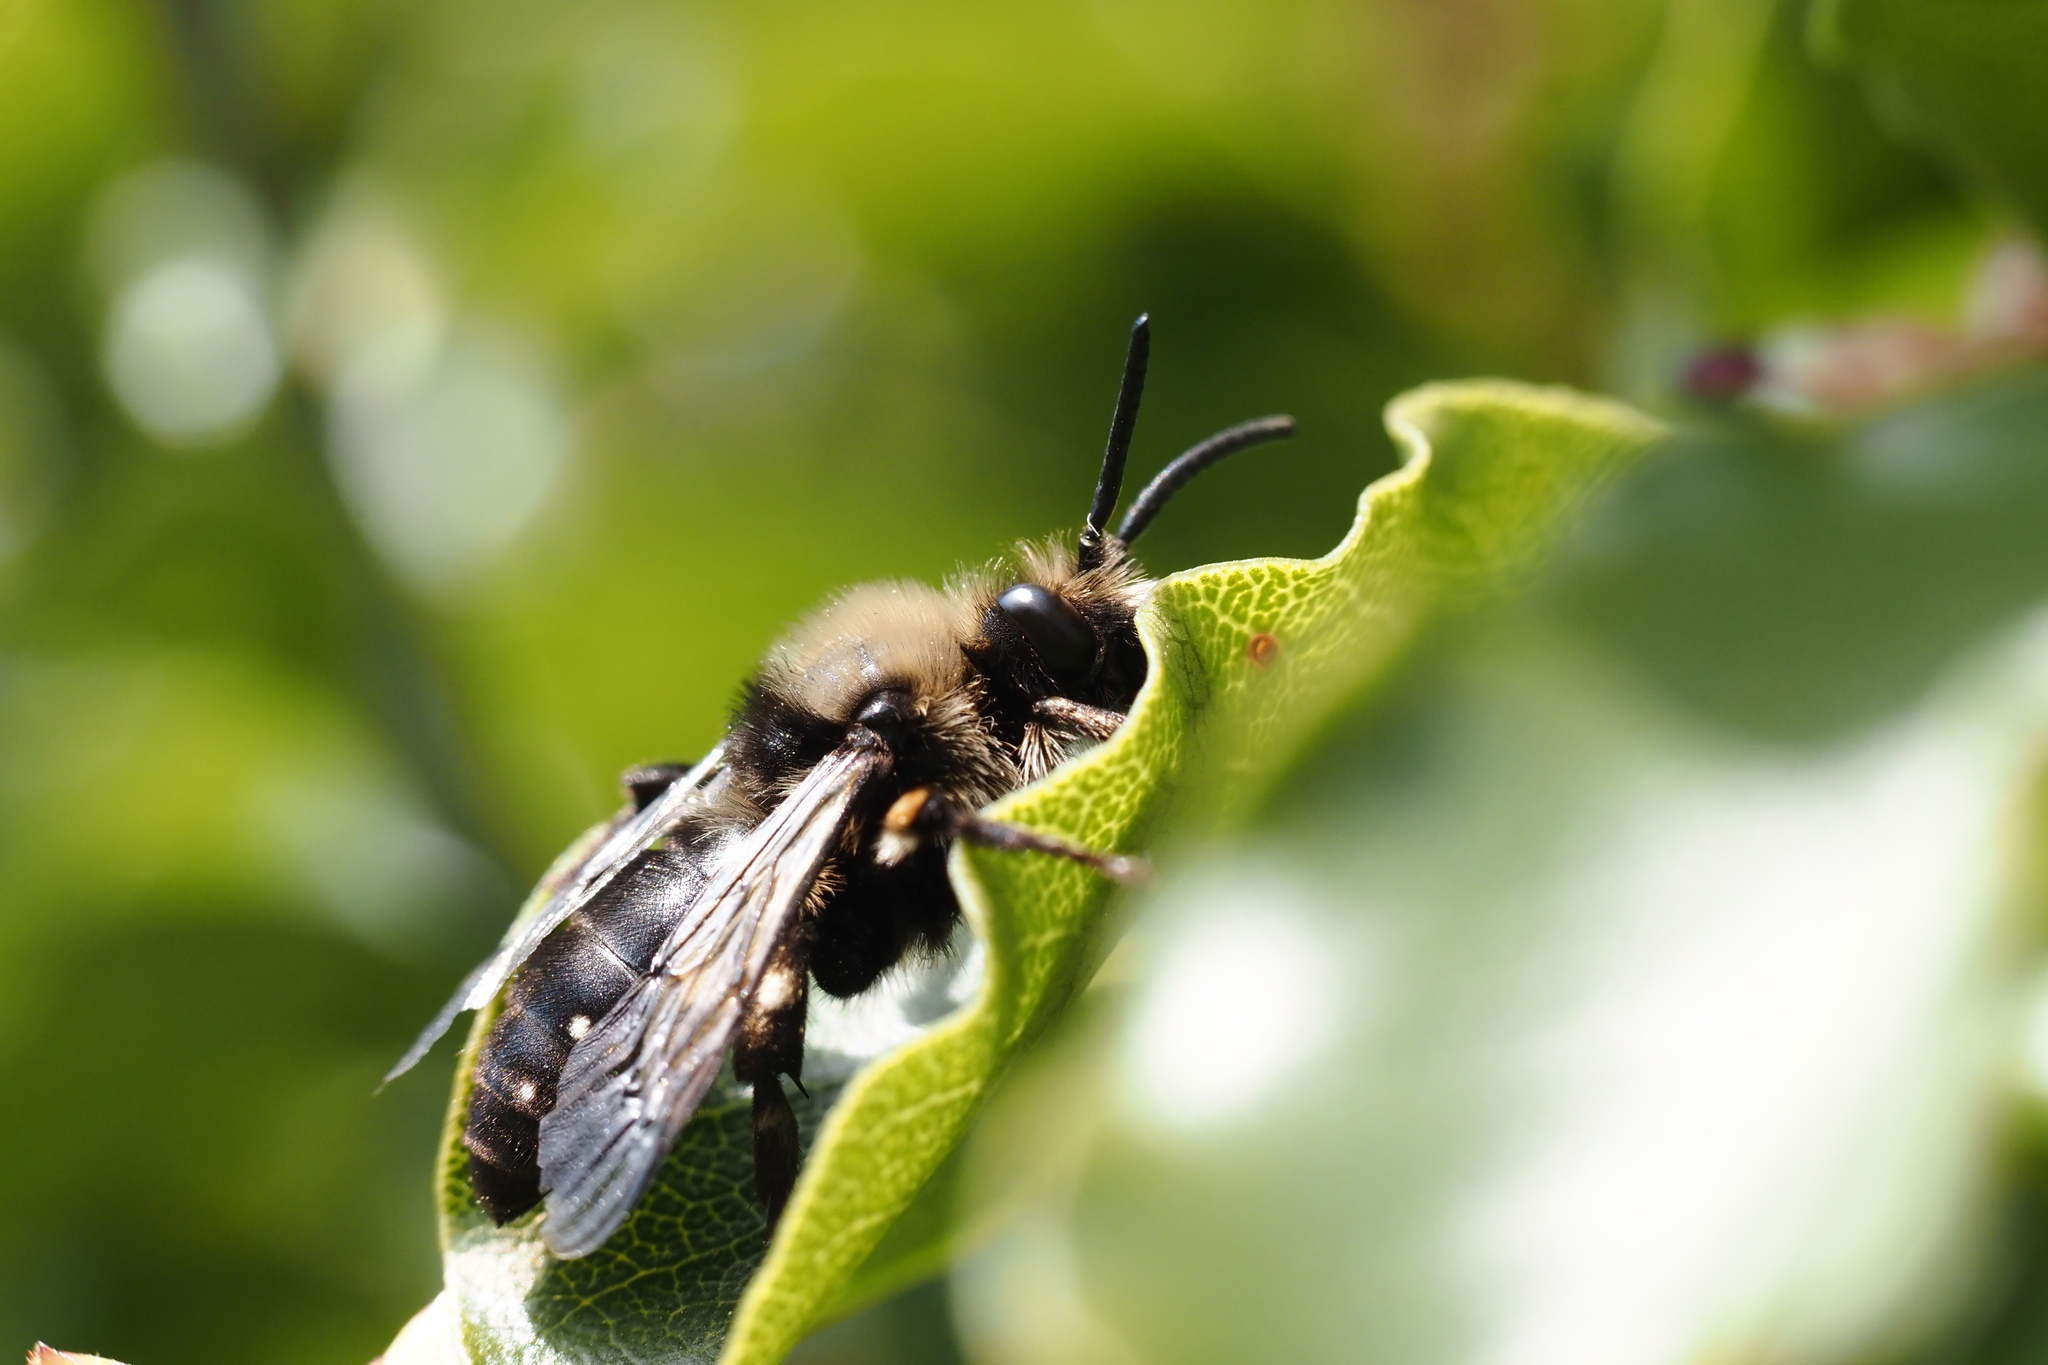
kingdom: Animalia
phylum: Arthropoda
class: Insecta
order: Hymenoptera
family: Apidae
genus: Melecta
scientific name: Melecta albifrons
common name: Common mourning bee
